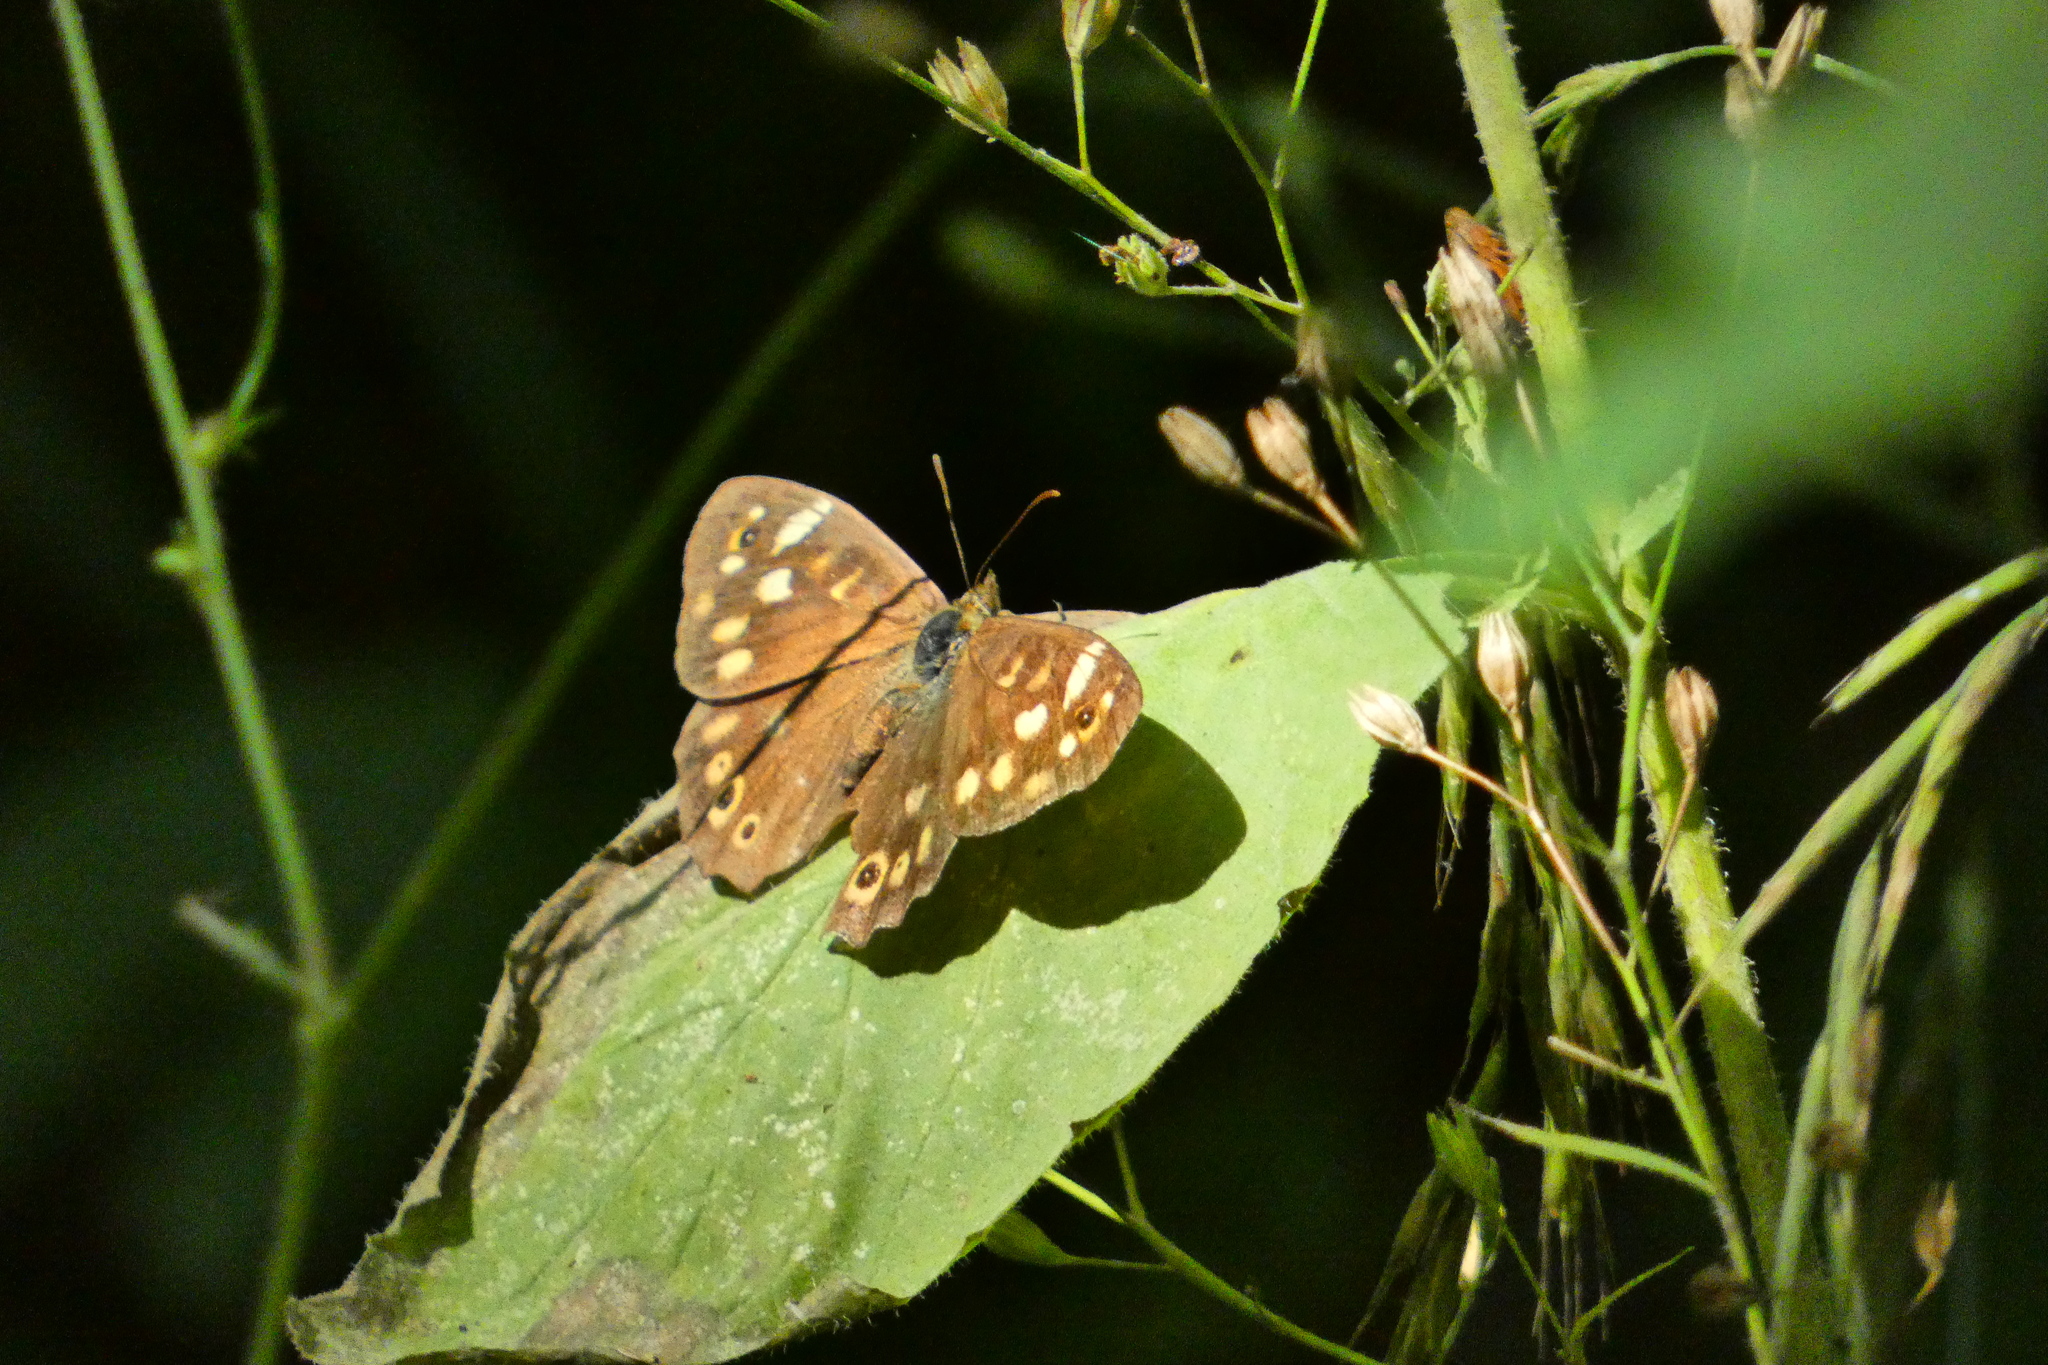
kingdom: Animalia
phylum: Arthropoda
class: Insecta
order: Lepidoptera
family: Nymphalidae
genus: Pararge
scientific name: Pararge aegeria
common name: Speckled wood
